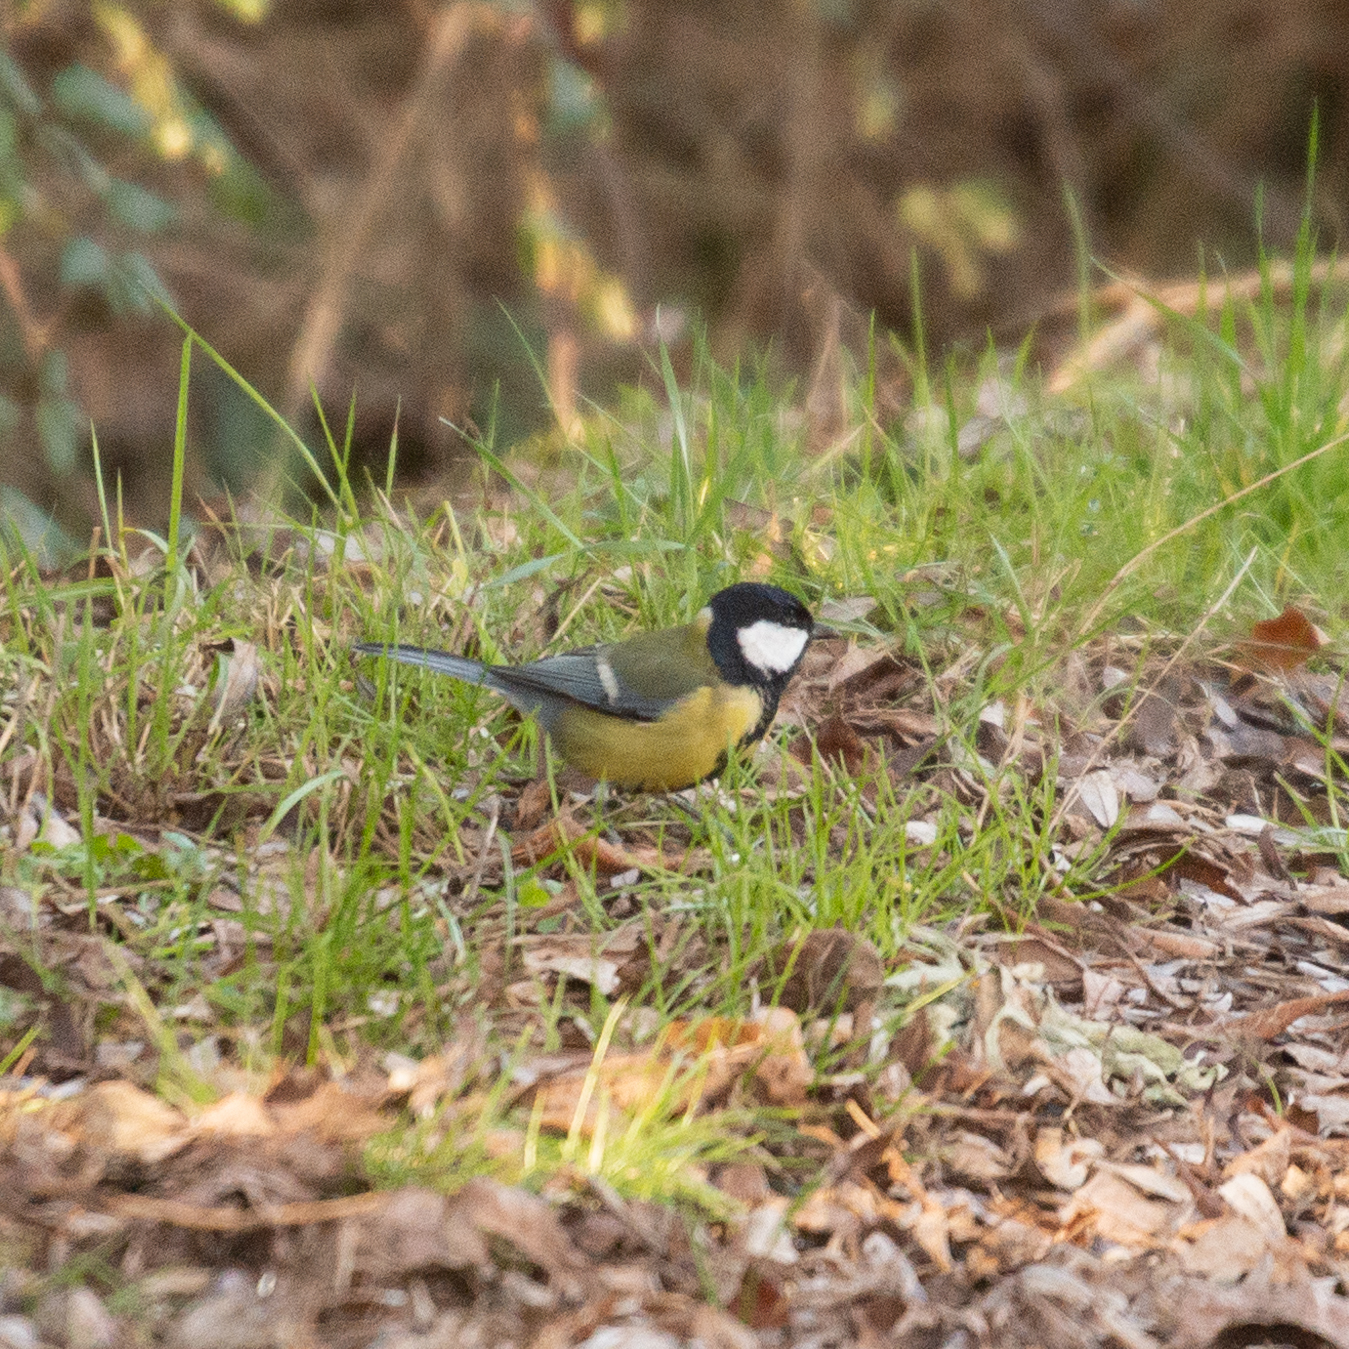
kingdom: Animalia
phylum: Chordata
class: Aves
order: Passeriformes
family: Paridae
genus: Parus
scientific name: Parus major
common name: Great tit
